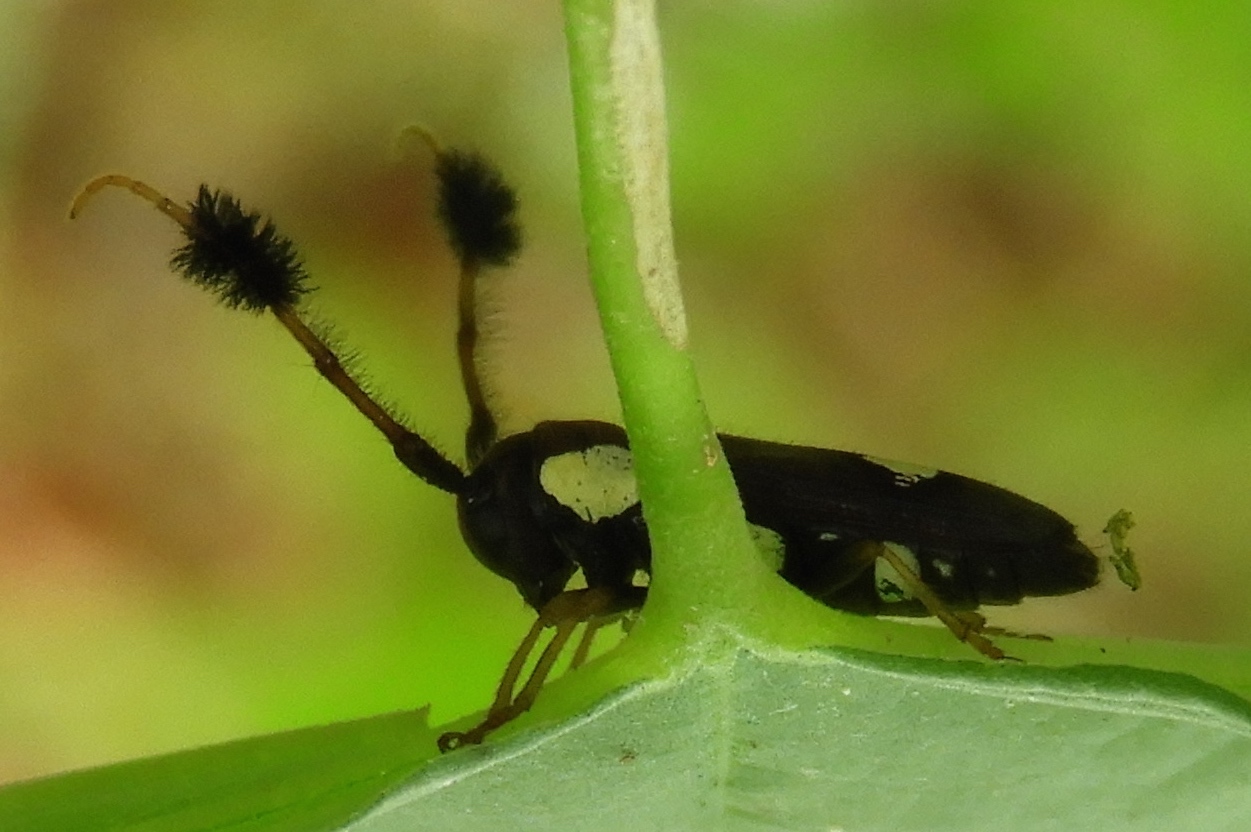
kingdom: Animalia
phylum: Arthropoda
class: Insecta
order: Coleoptera
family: Cerambycidae
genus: Cirrhicera
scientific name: Cirrhicera basalis
